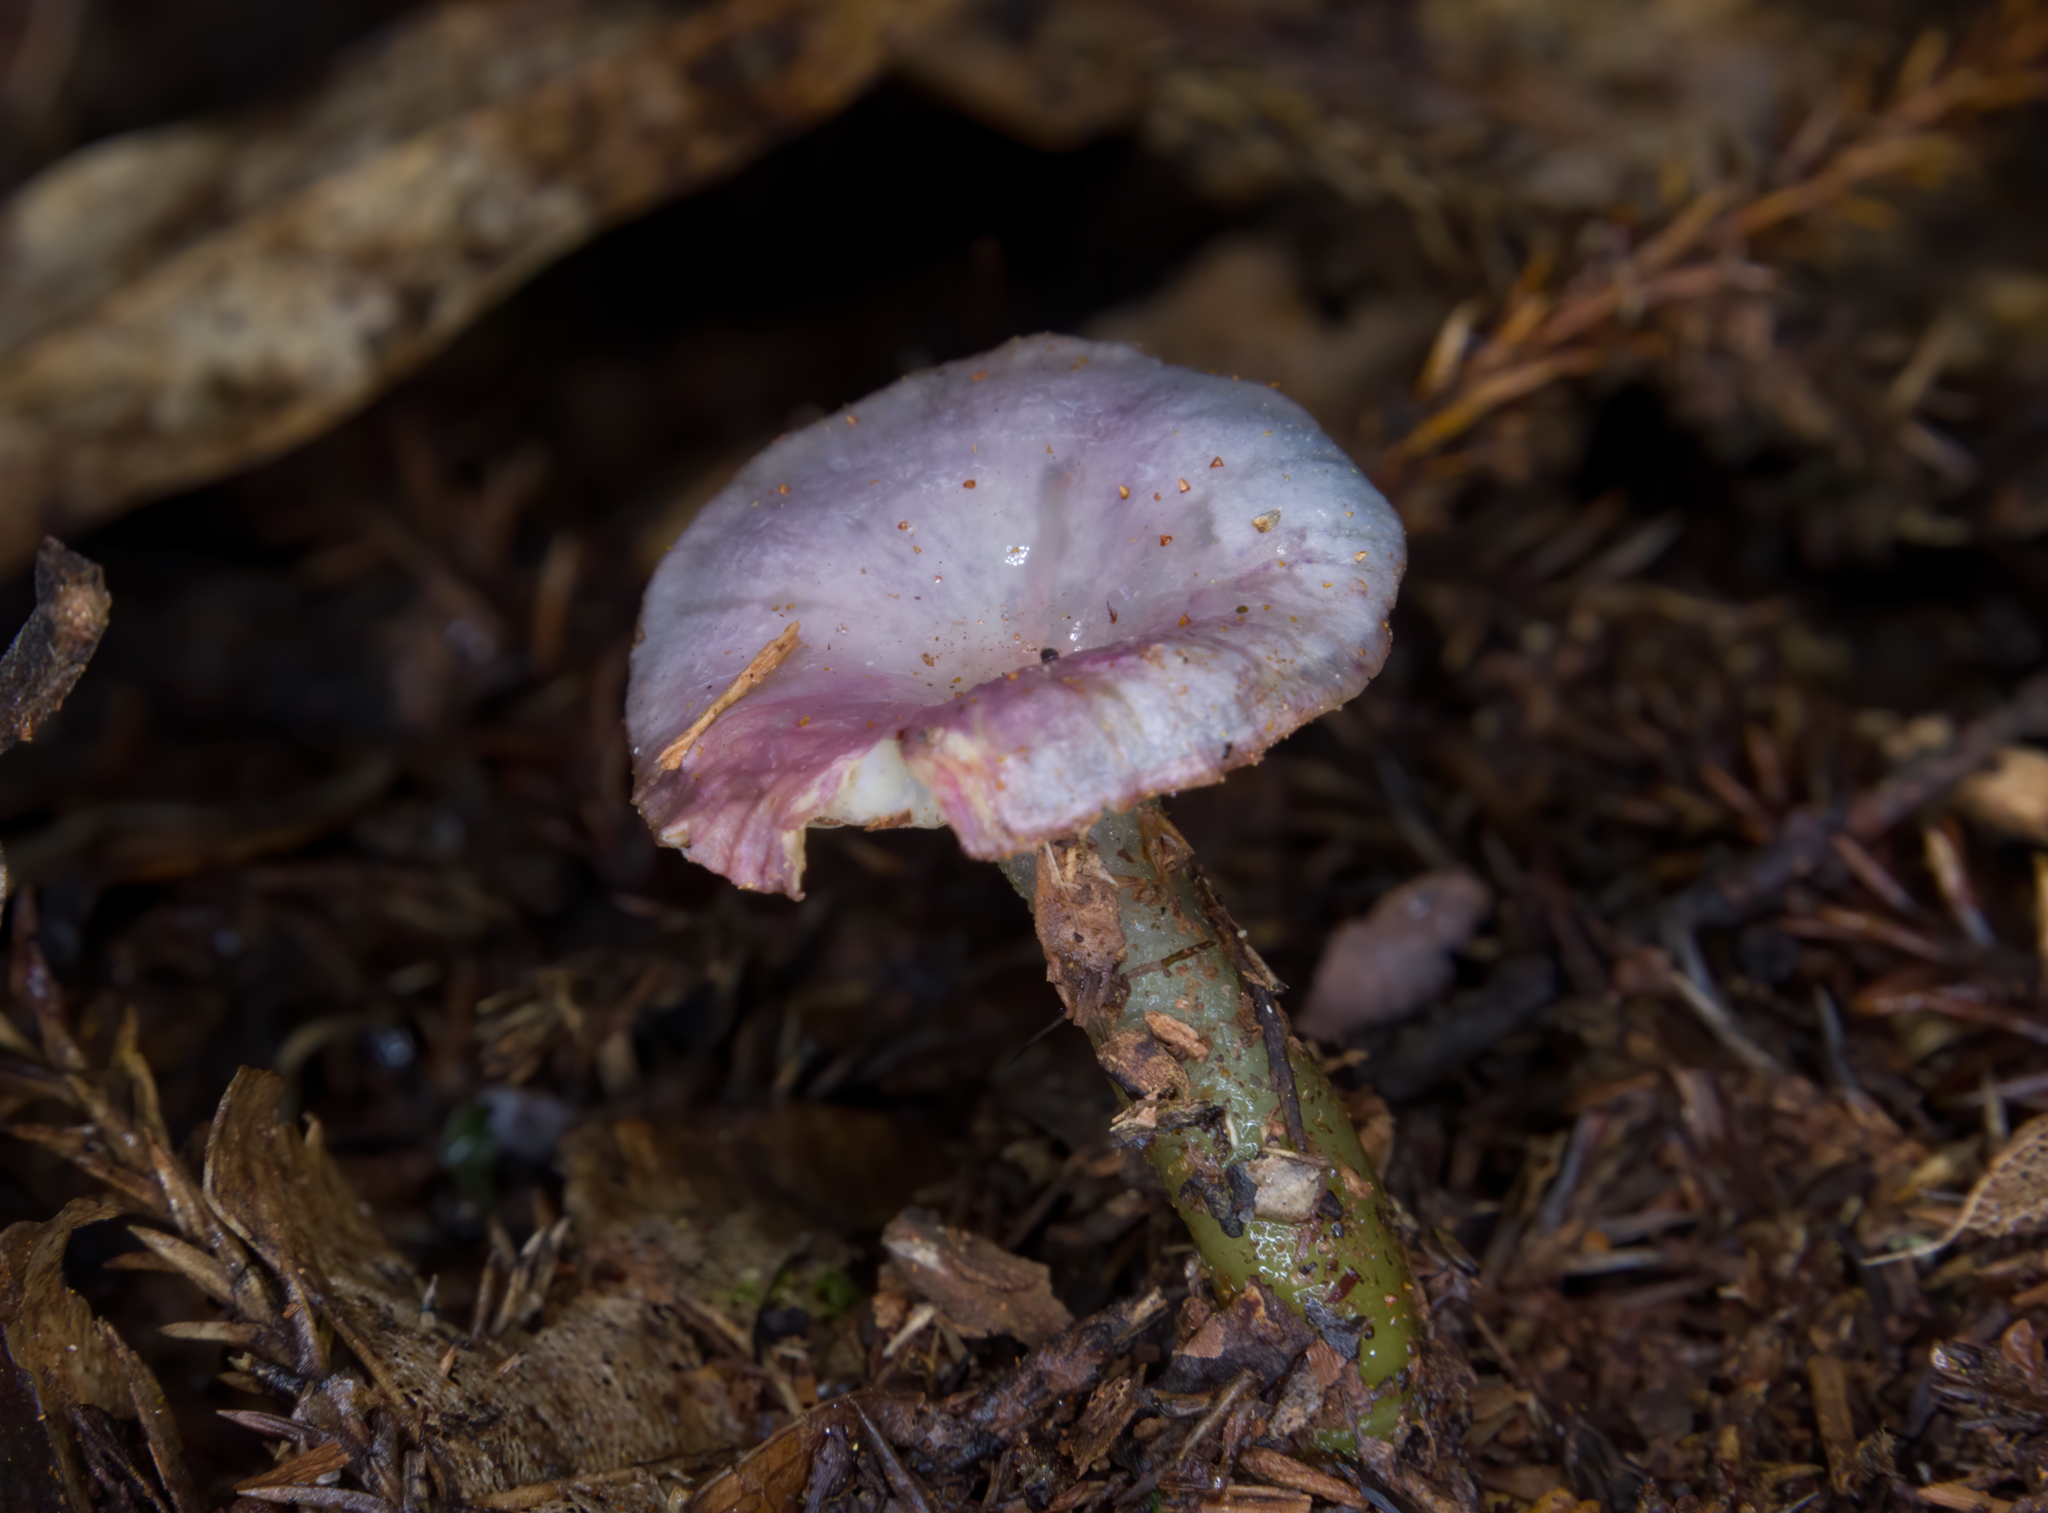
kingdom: Fungi
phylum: Basidiomycota
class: Agaricomycetes
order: Agaricales
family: Hygrophoraceae
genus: Gliophorus
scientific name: Gliophorus lilacipes
